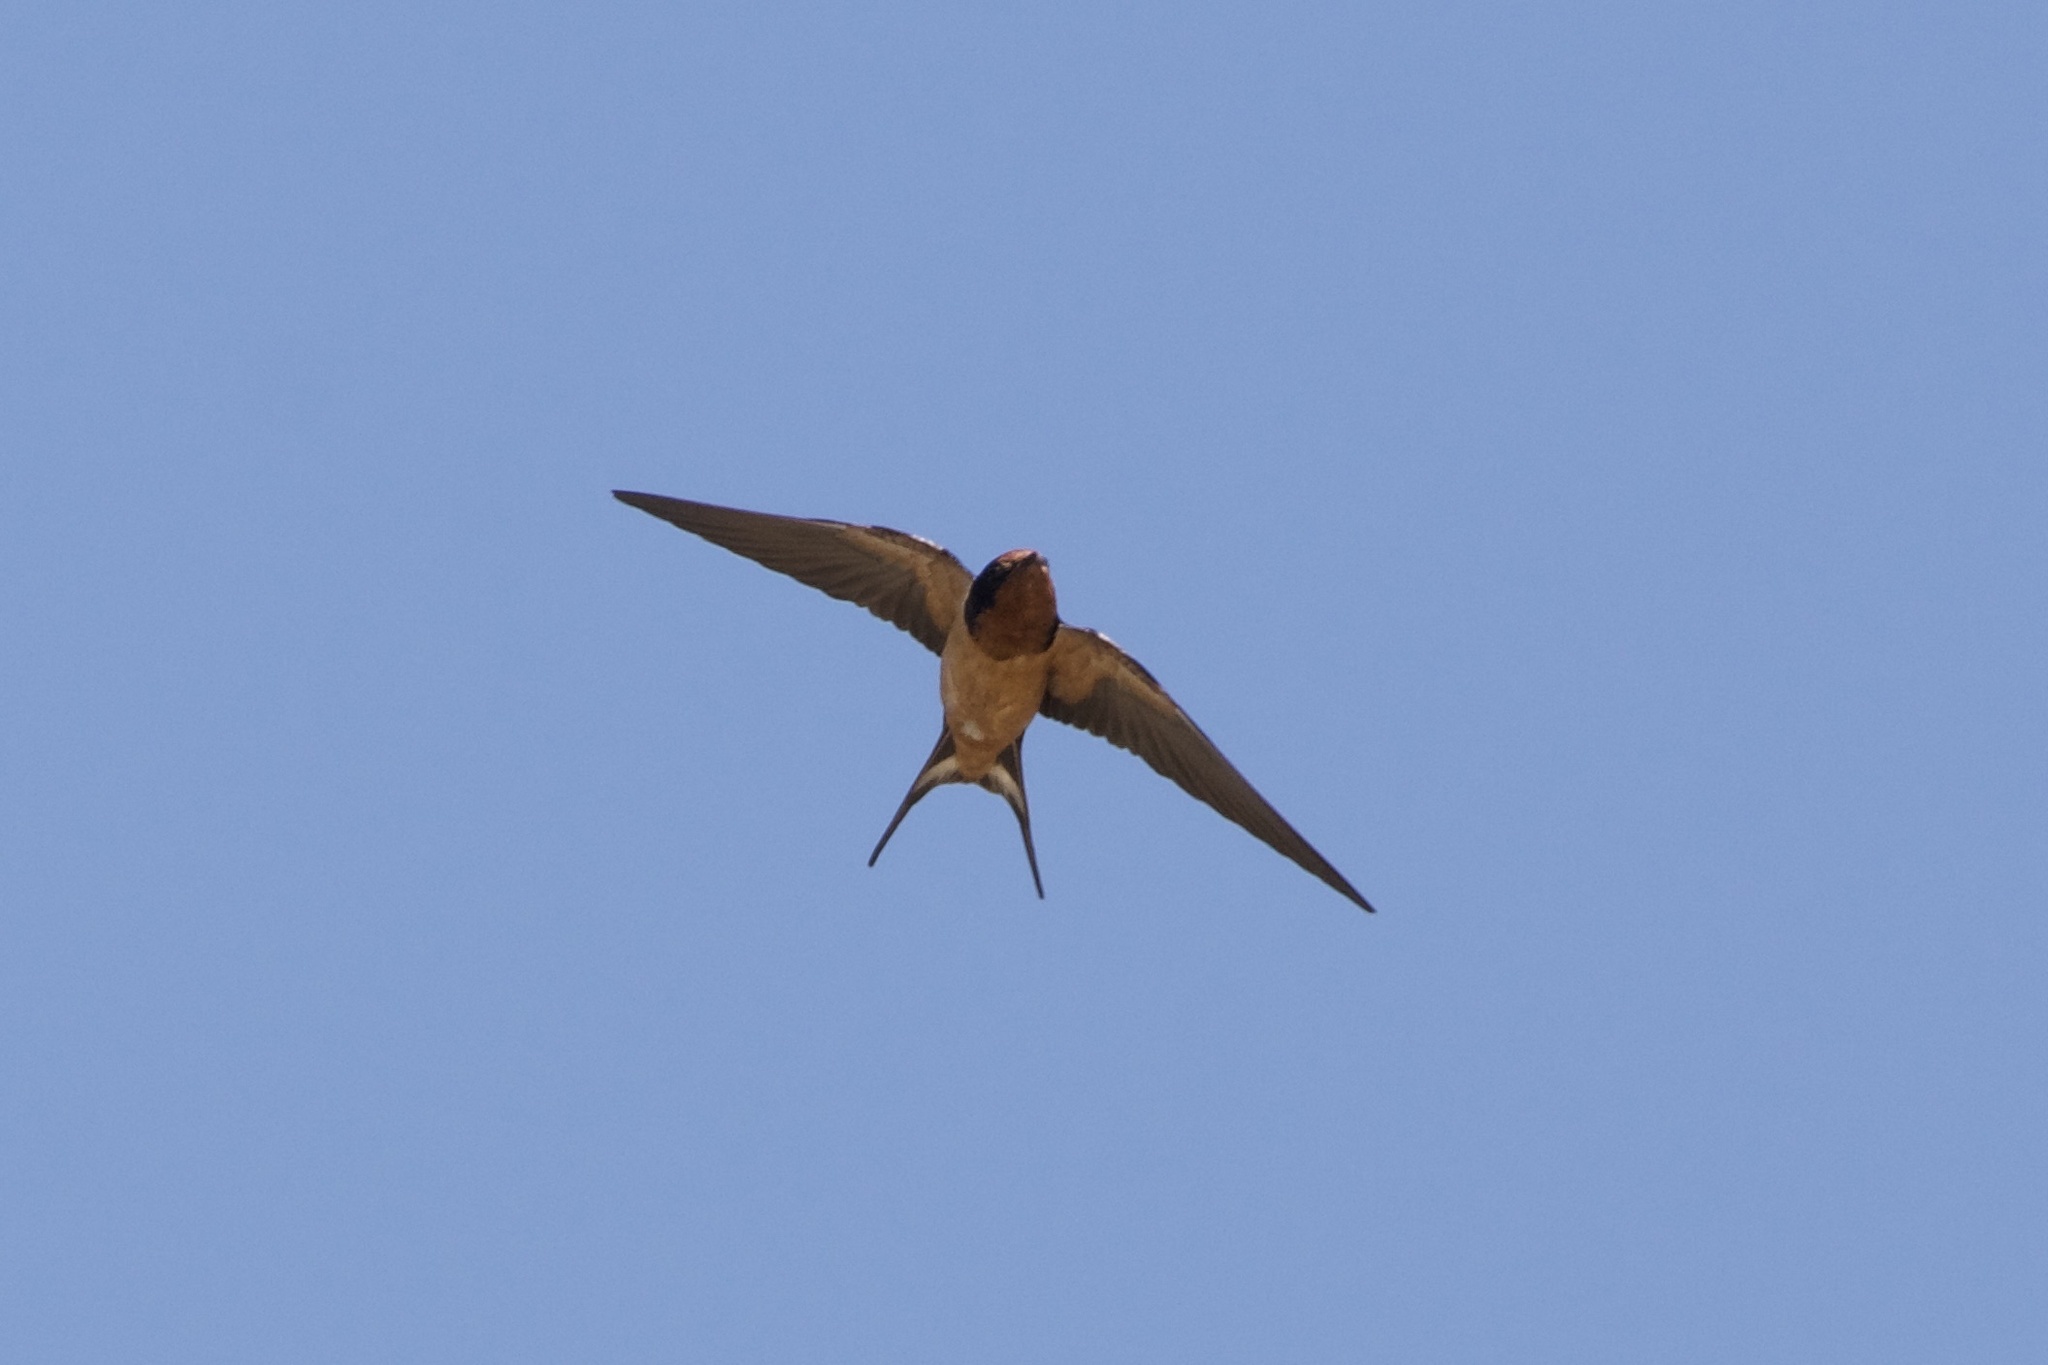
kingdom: Animalia
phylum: Chordata
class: Aves
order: Passeriformes
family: Hirundinidae
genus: Hirundo
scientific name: Hirundo rustica
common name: Barn swallow
